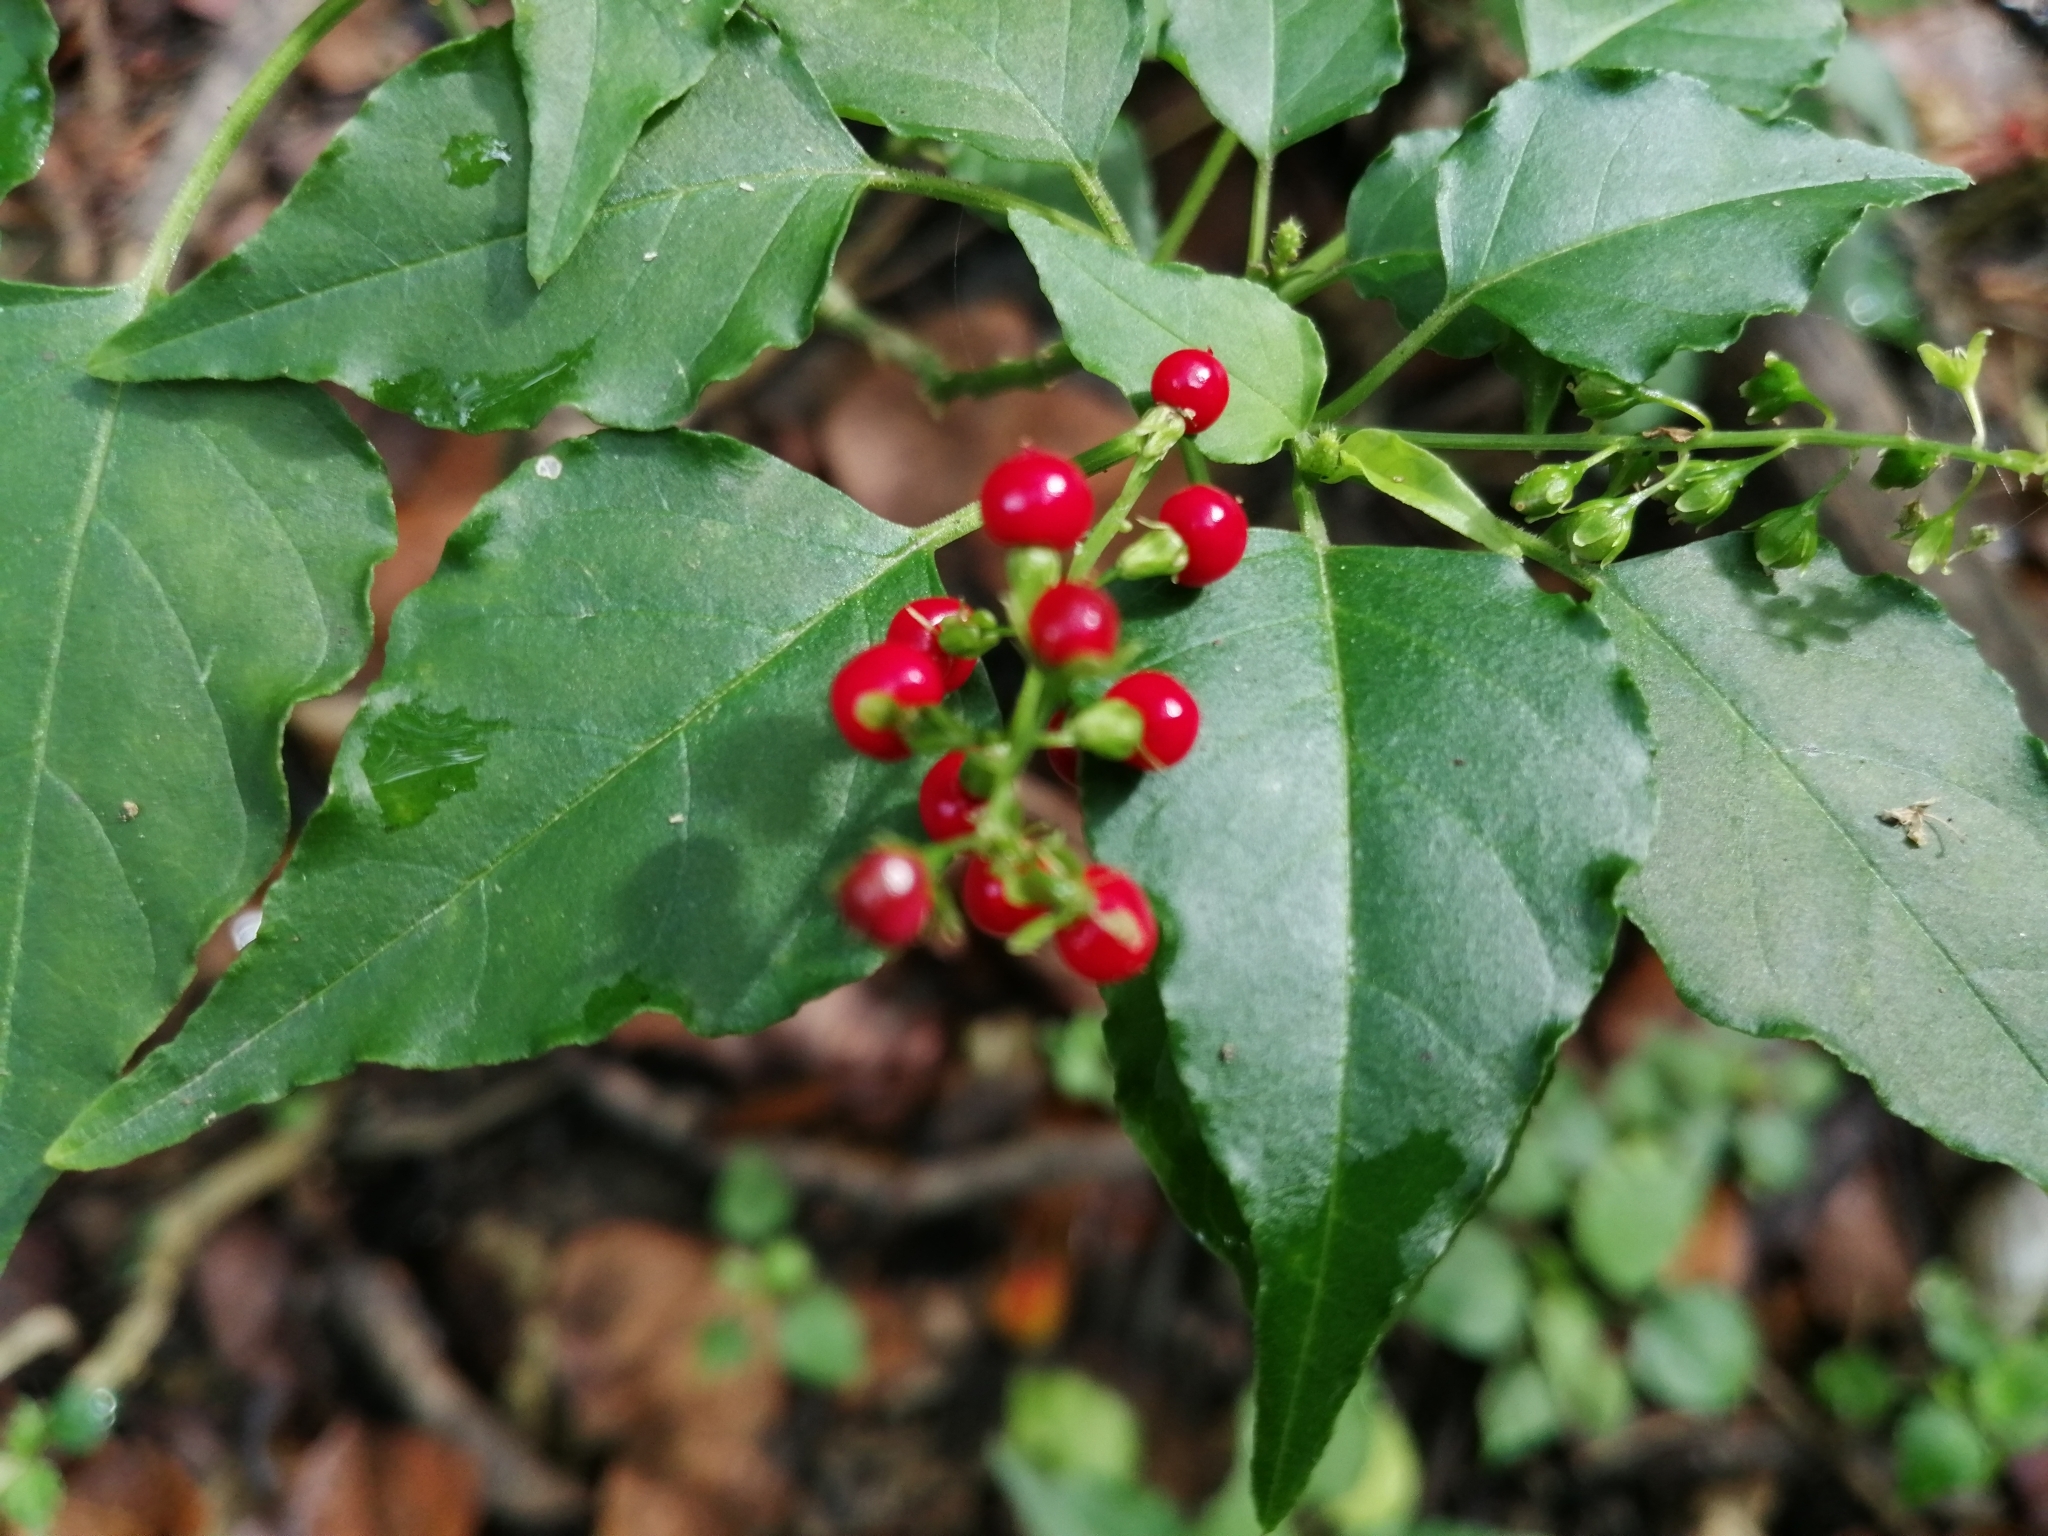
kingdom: Plantae
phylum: Tracheophyta
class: Magnoliopsida
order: Caryophyllales
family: Phytolaccaceae
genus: Rivina
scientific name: Rivina humilis
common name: Rougeplant
